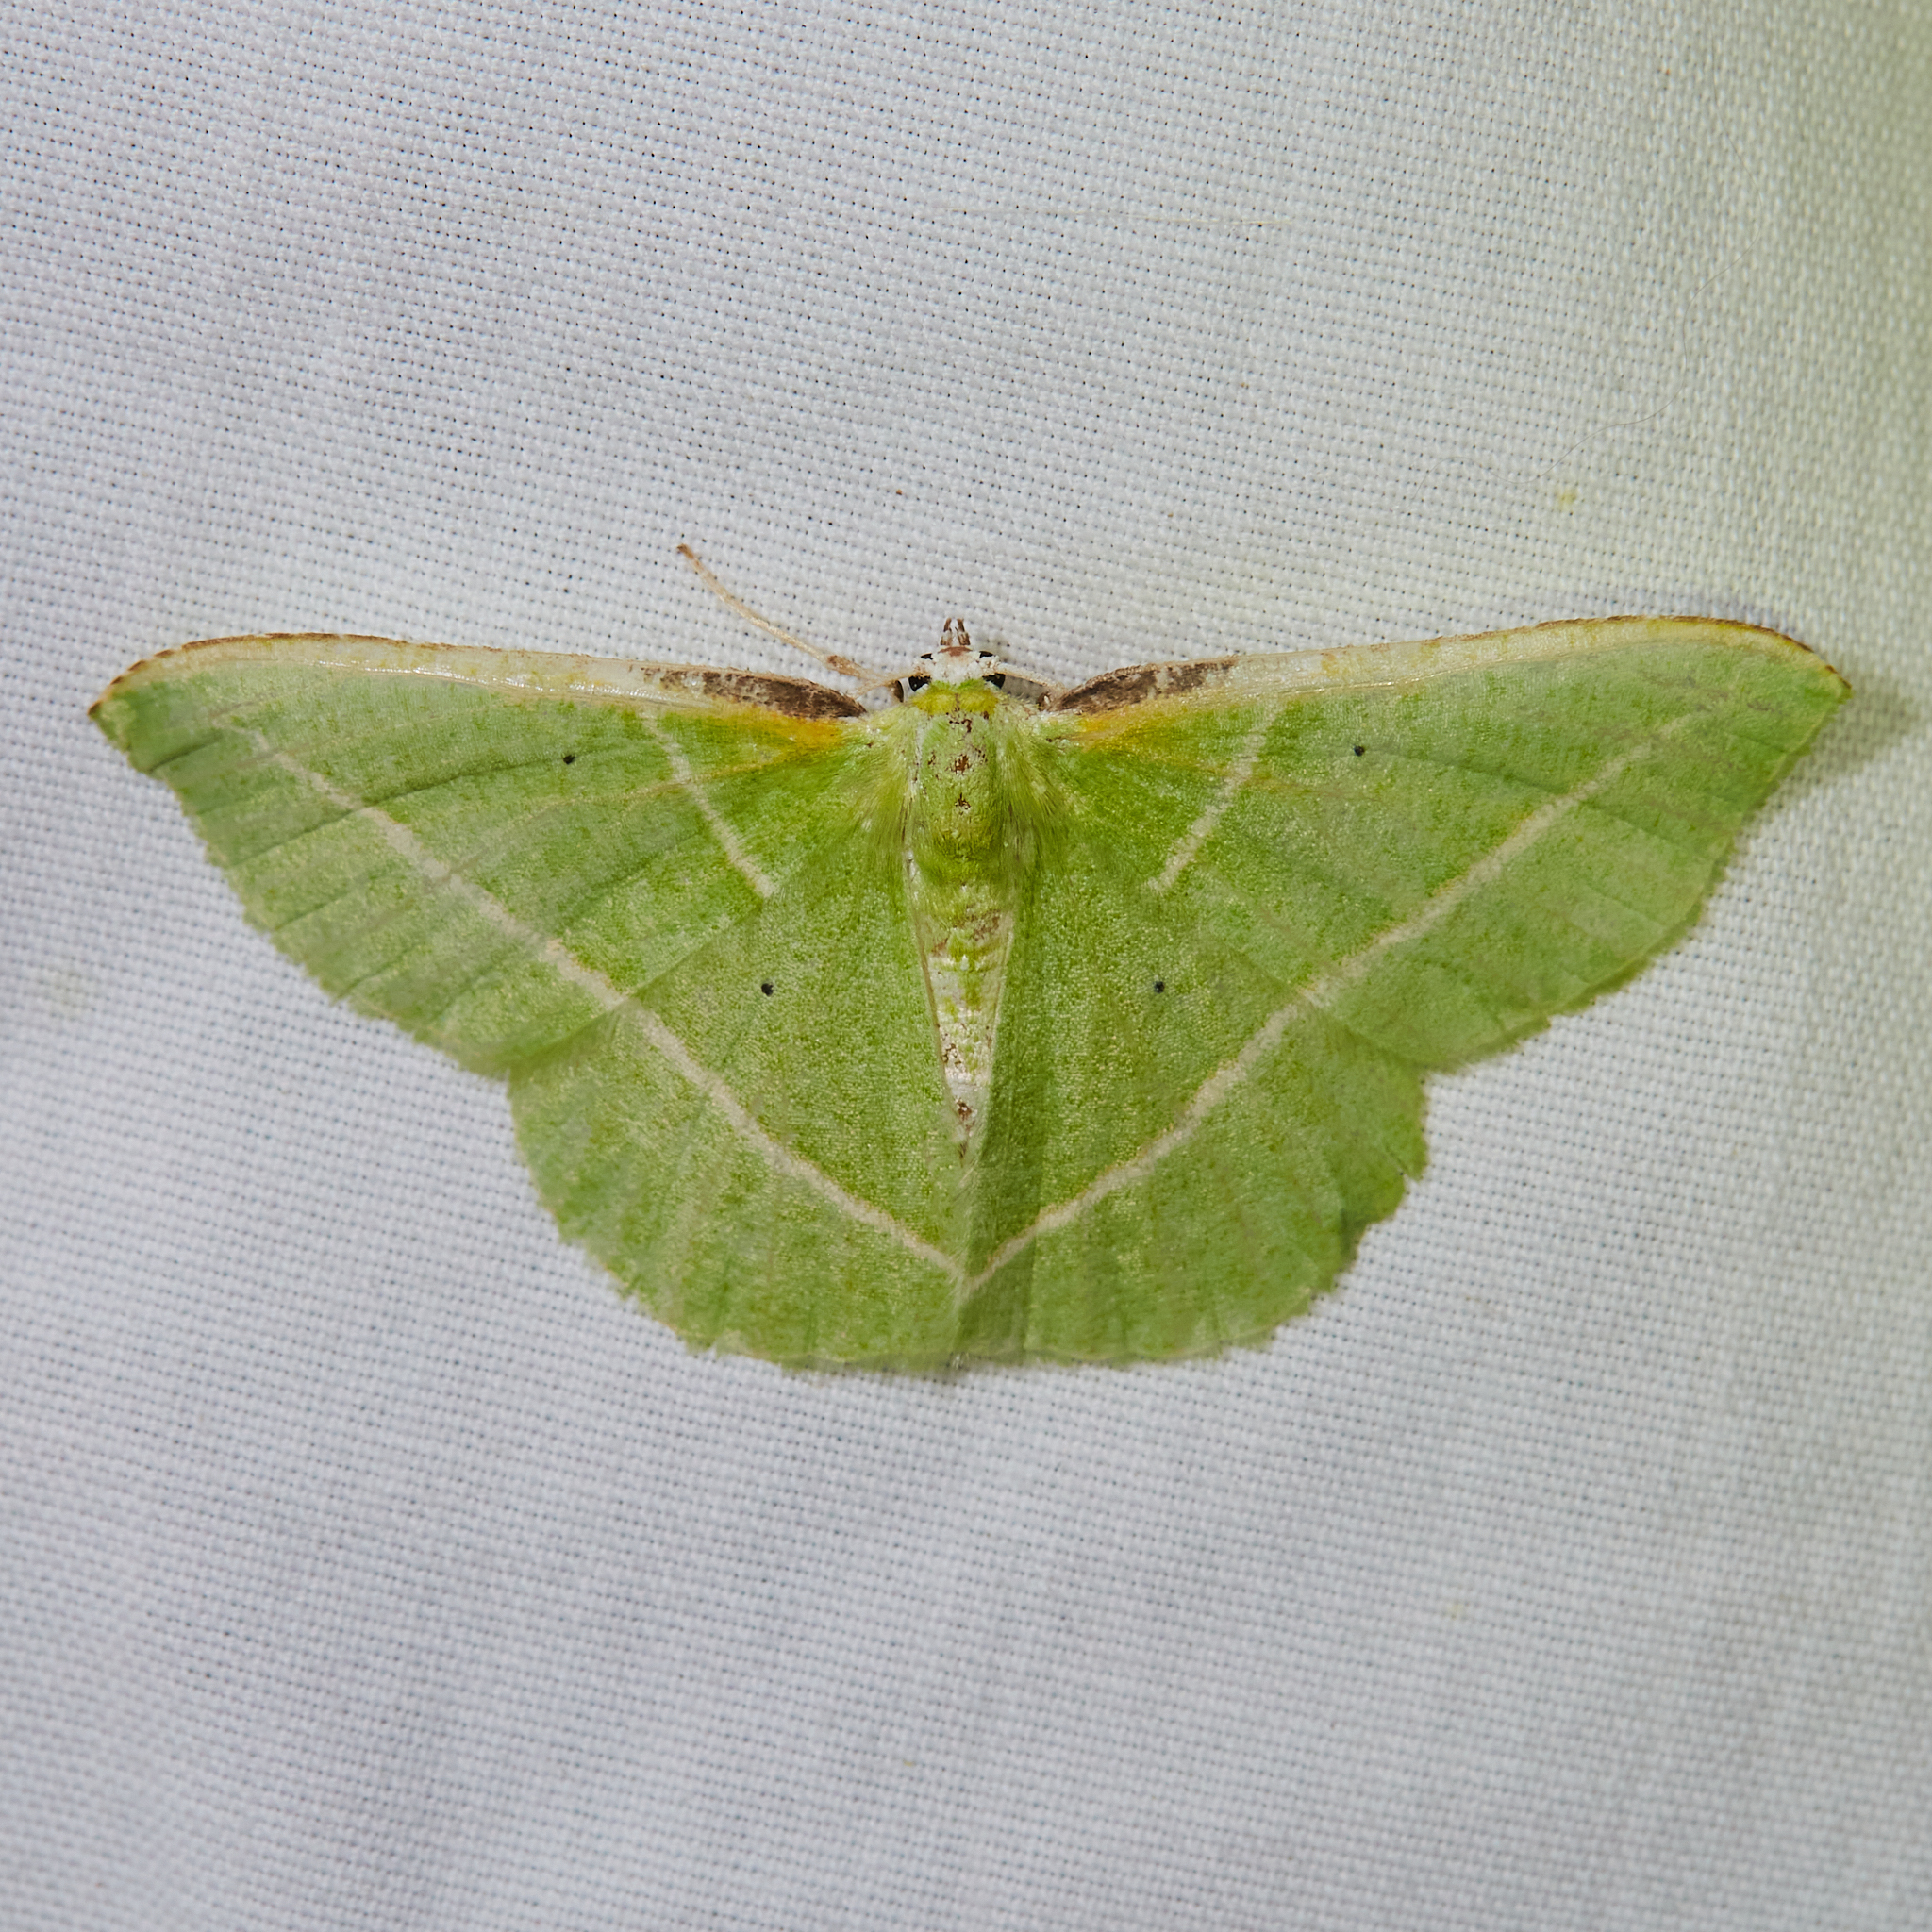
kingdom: Animalia
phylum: Arthropoda
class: Insecta
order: Lepidoptera
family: Geometridae
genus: Dichorda
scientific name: Dichorda illustraria
